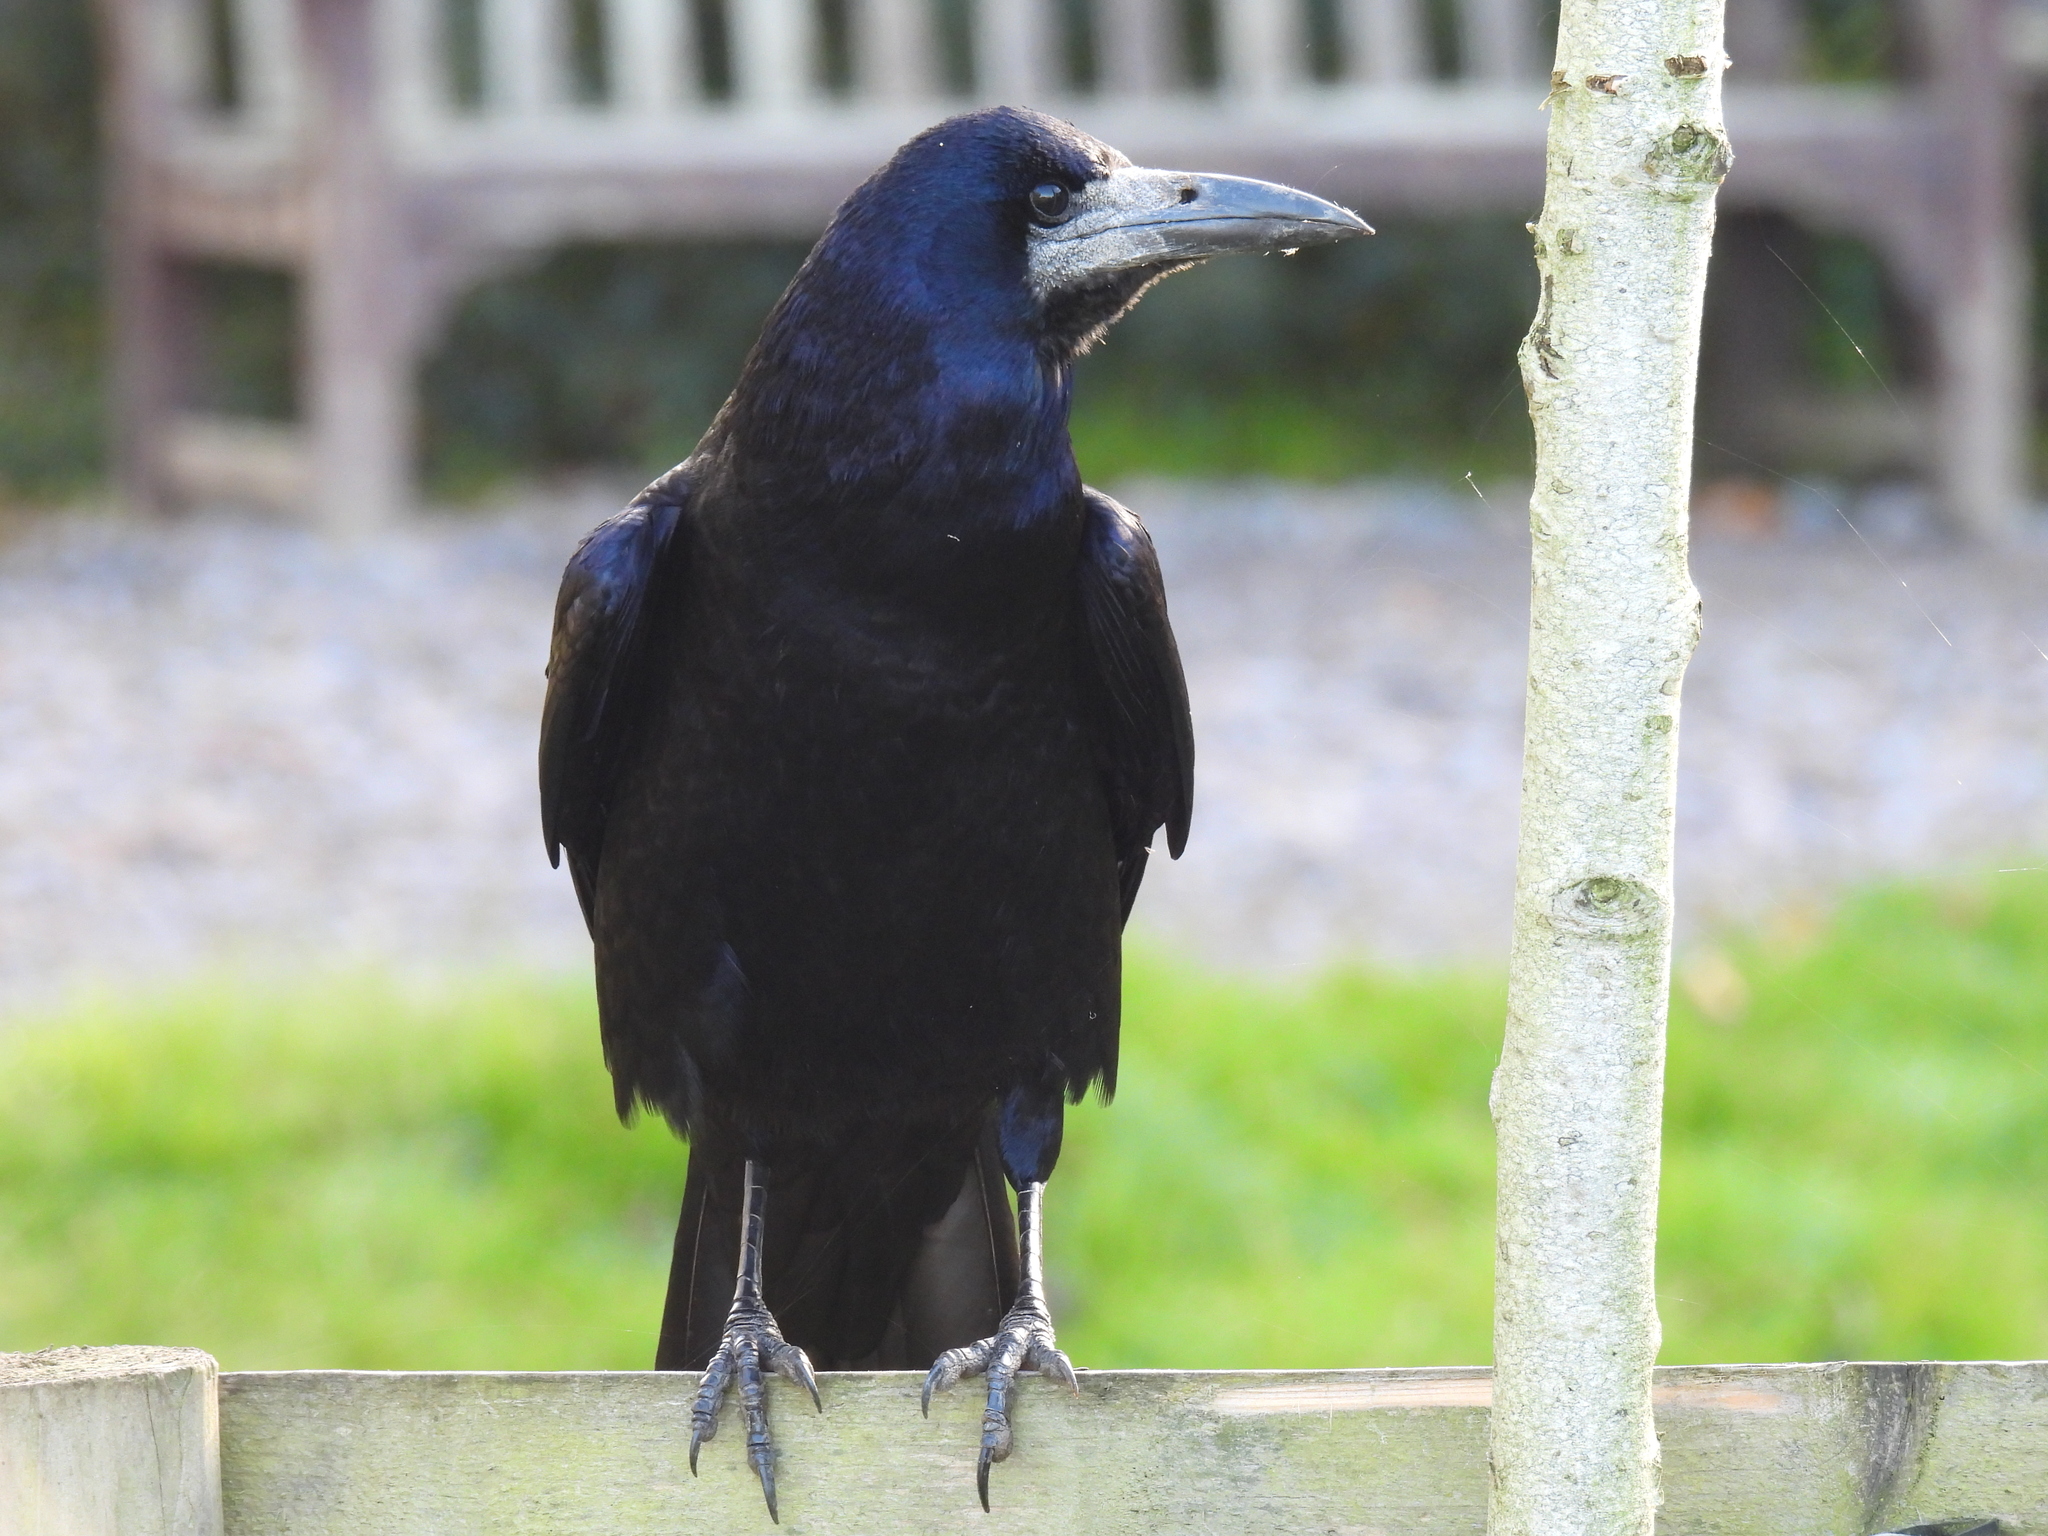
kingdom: Animalia
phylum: Chordata
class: Aves
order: Passeriformes
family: Corvidae
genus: Corvus
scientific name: Corvus frugilegus
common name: Rook
